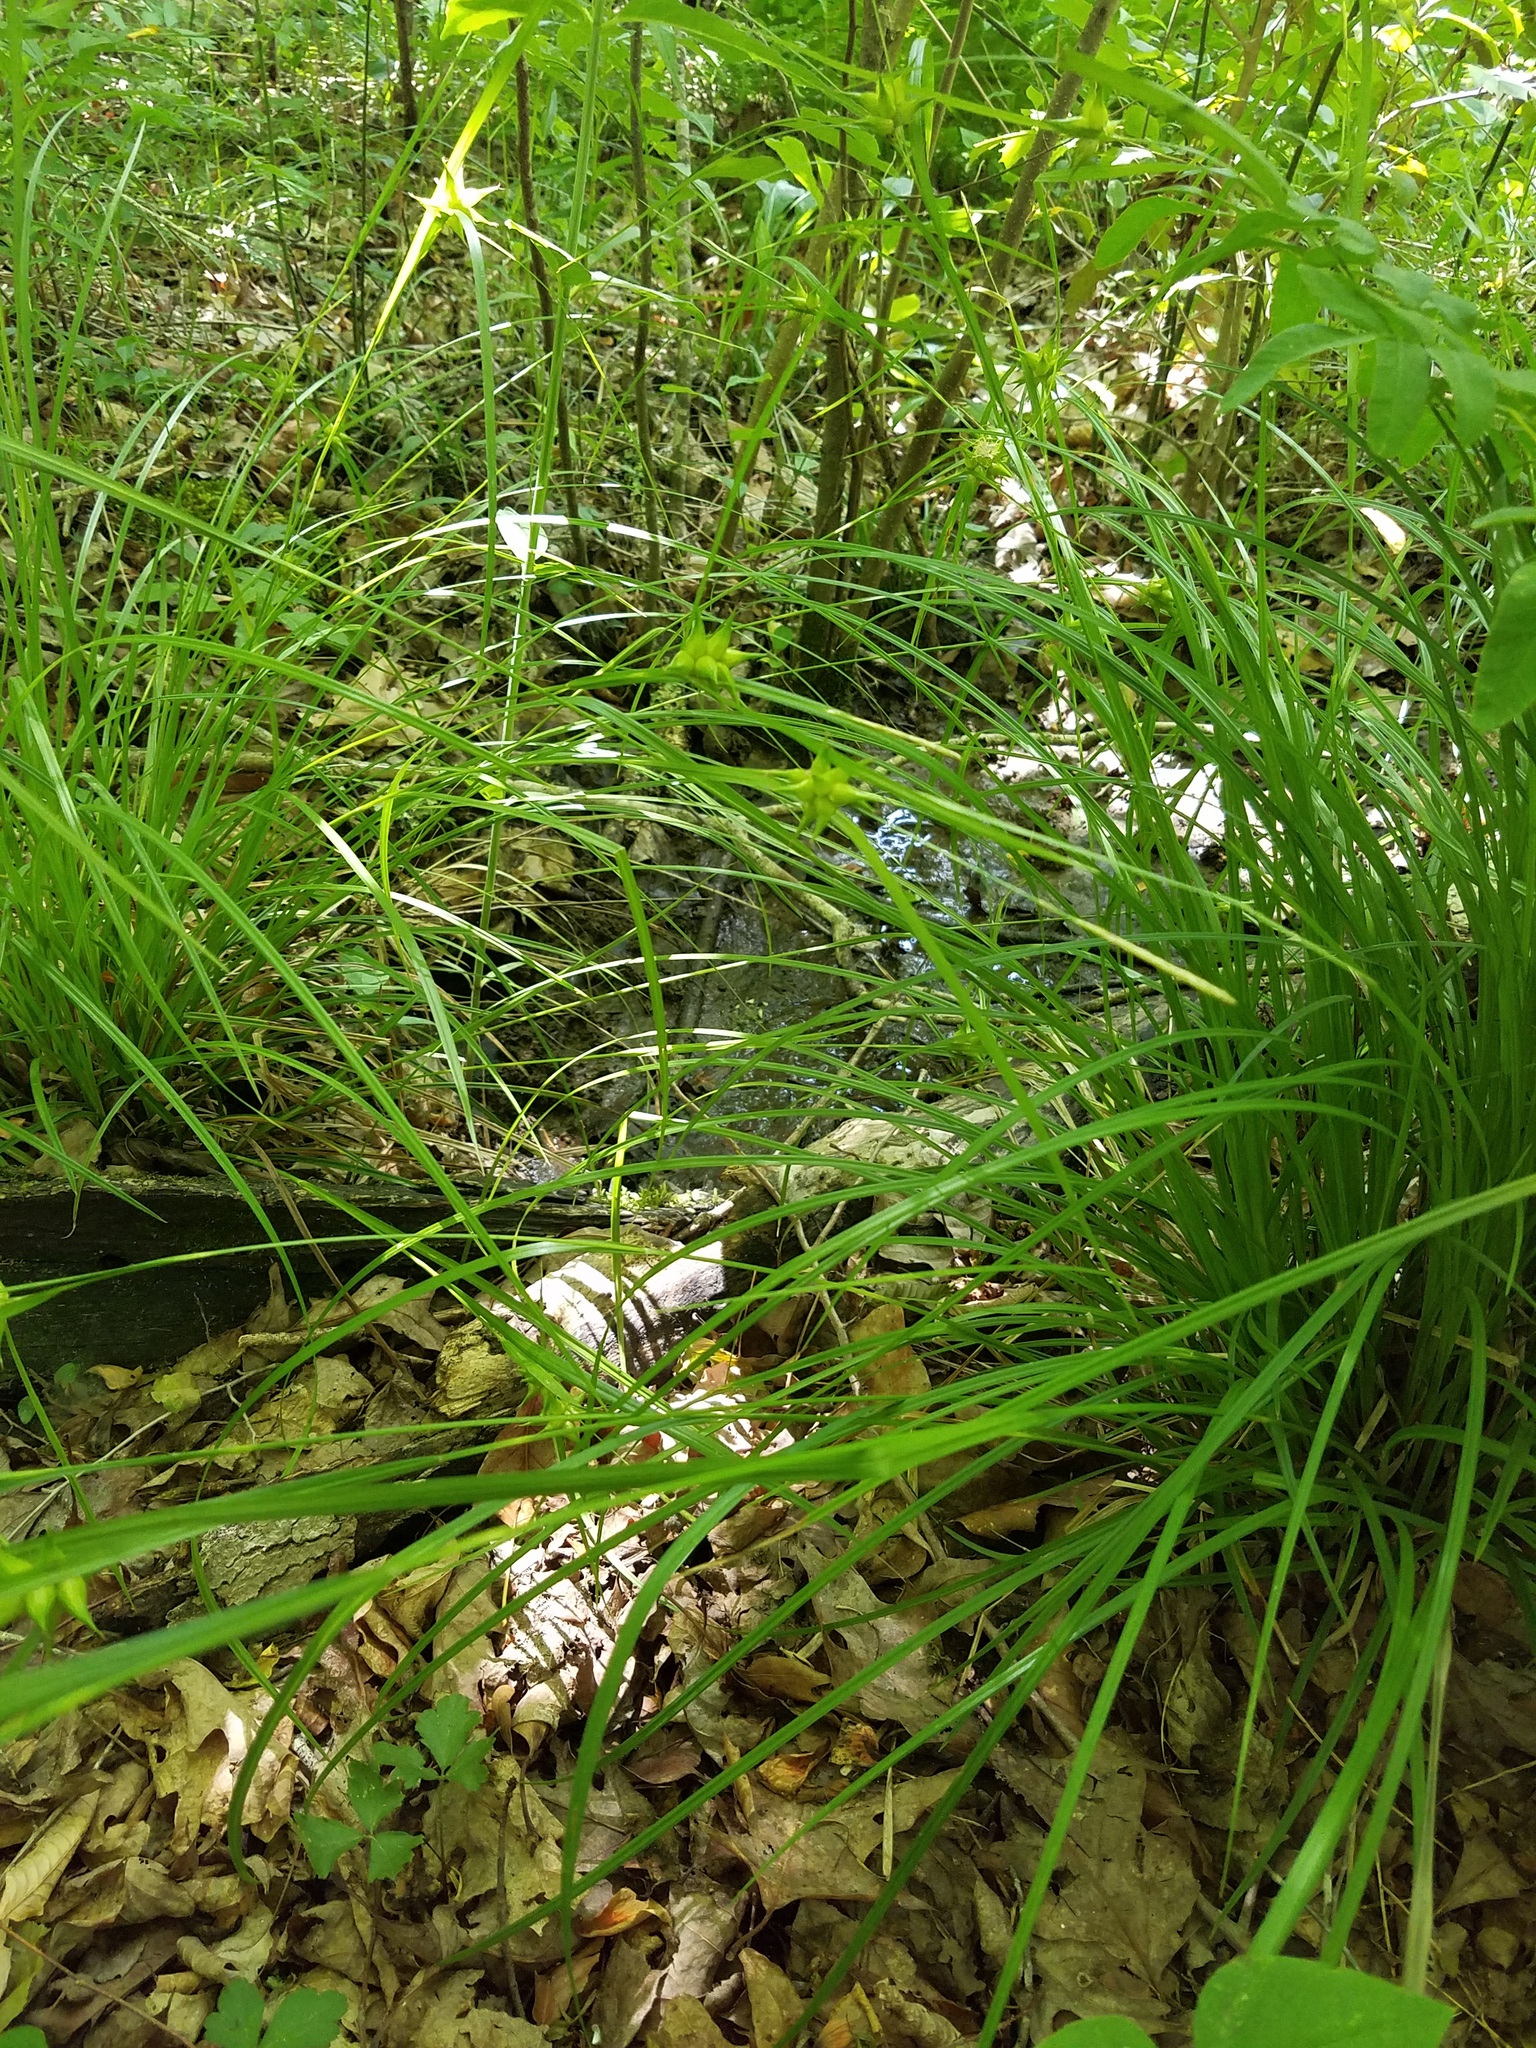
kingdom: Plantae
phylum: Tracheophyta
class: Liliopsida
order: Poales
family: Cyperaceae
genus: Carex
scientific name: Carex intumescens
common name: Greater bladder sedge
